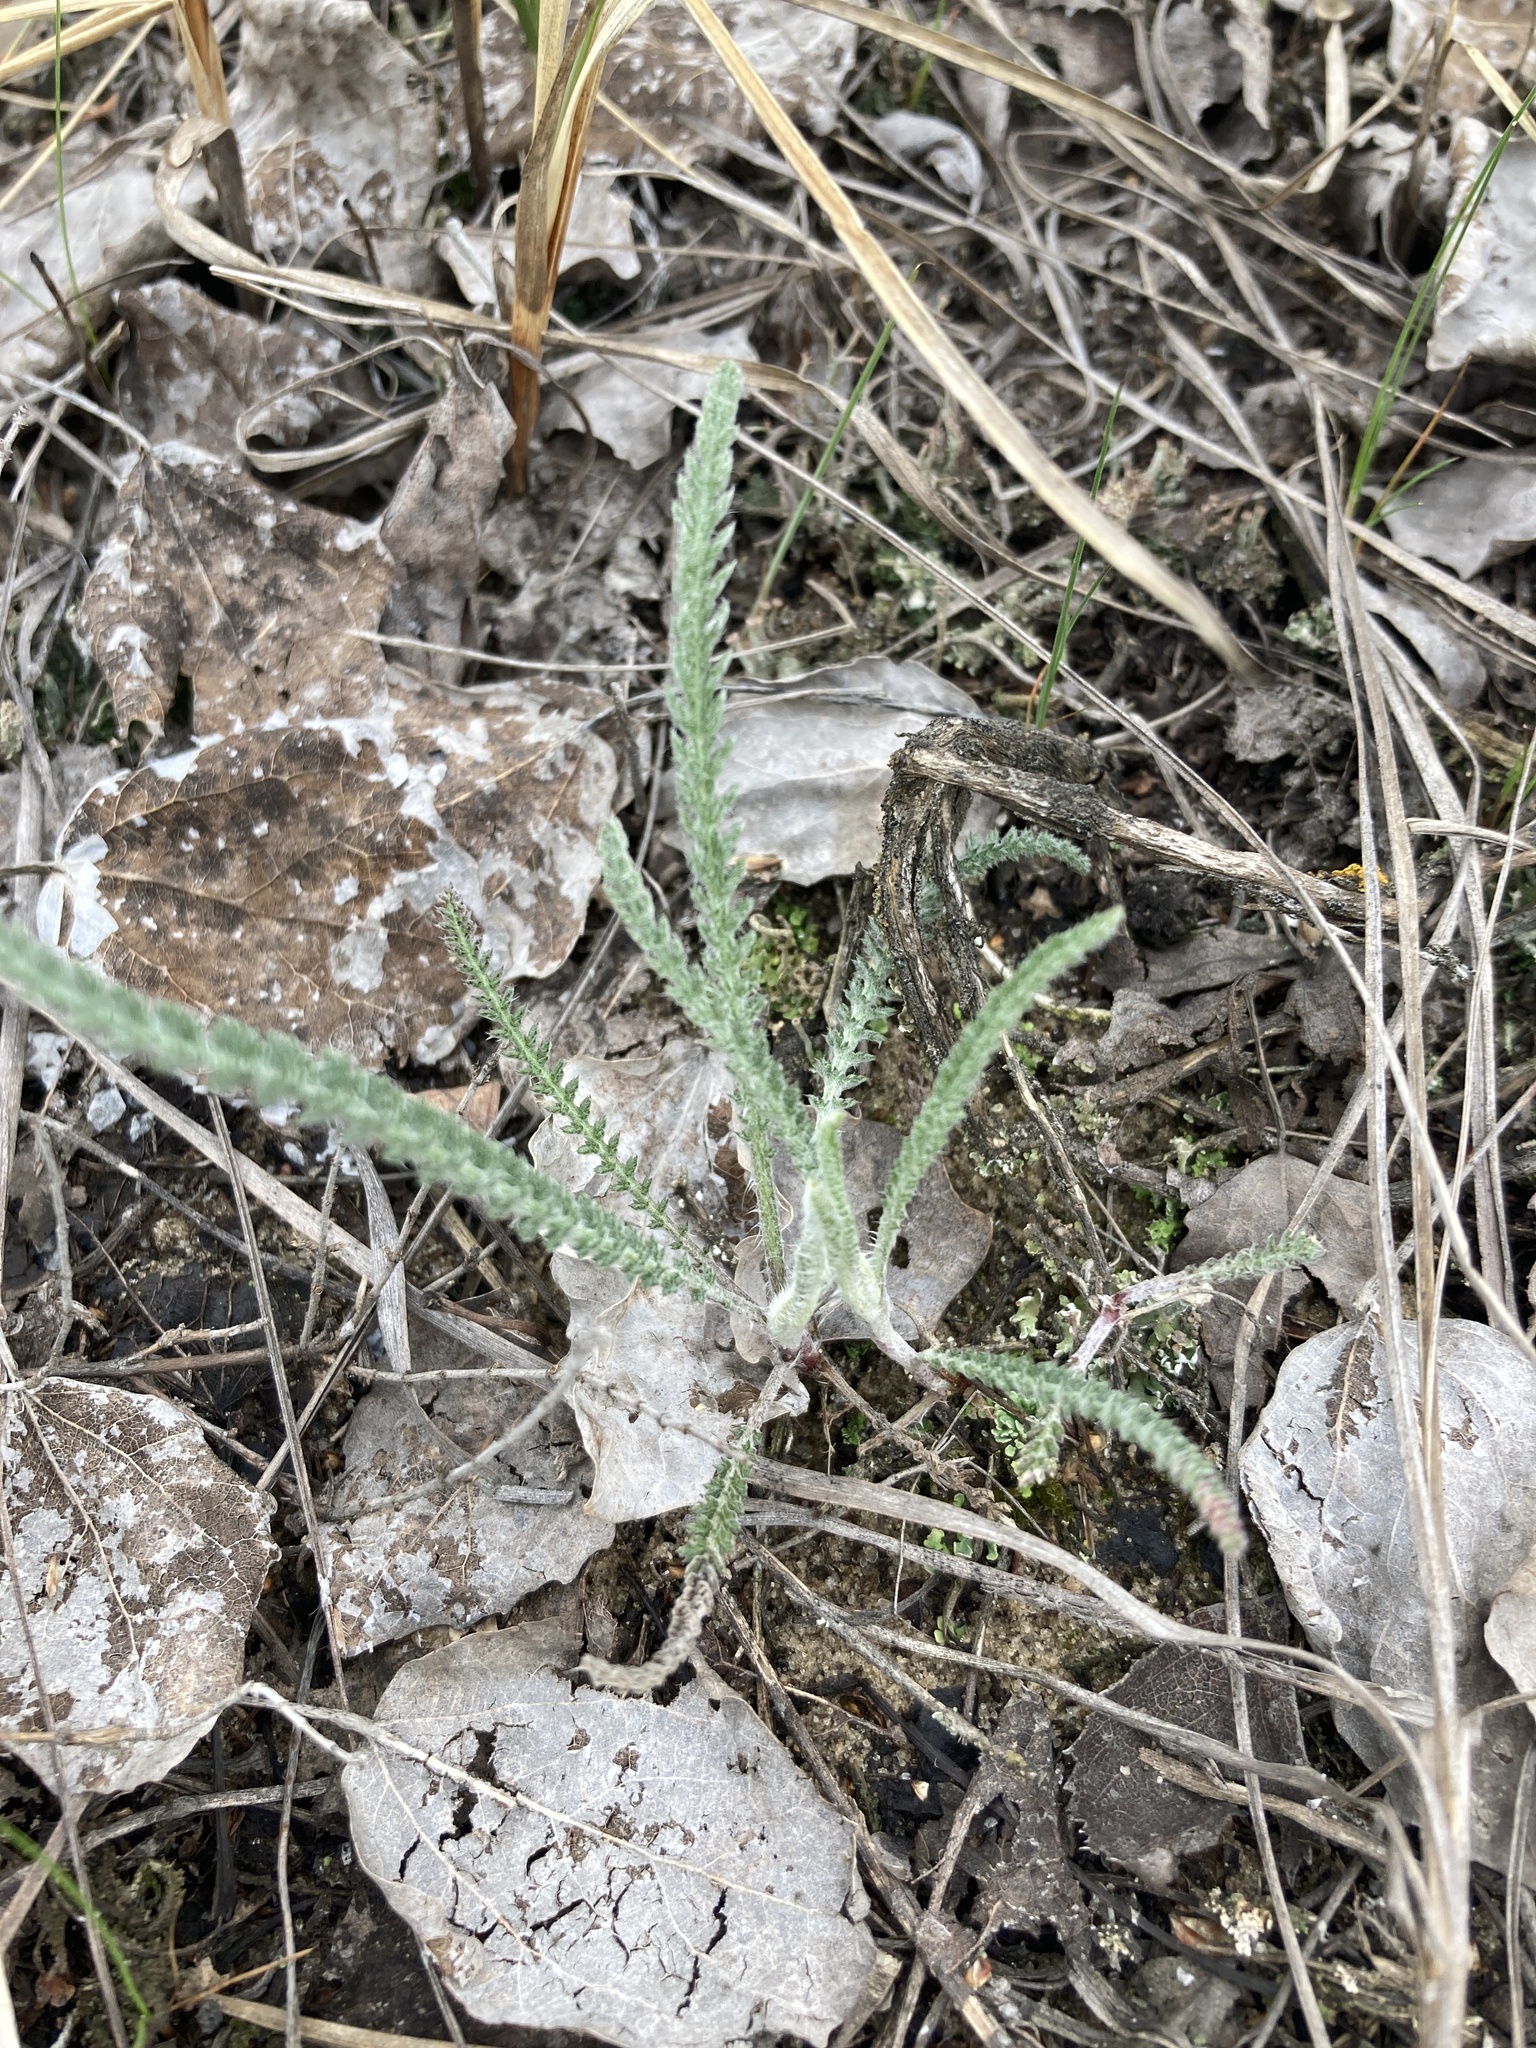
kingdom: Plantae
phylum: Tracheophyta
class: Magnoliopsida
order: Asterales
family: Asteraceae
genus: Achillea
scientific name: Achillea millefolium
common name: Yarrow
